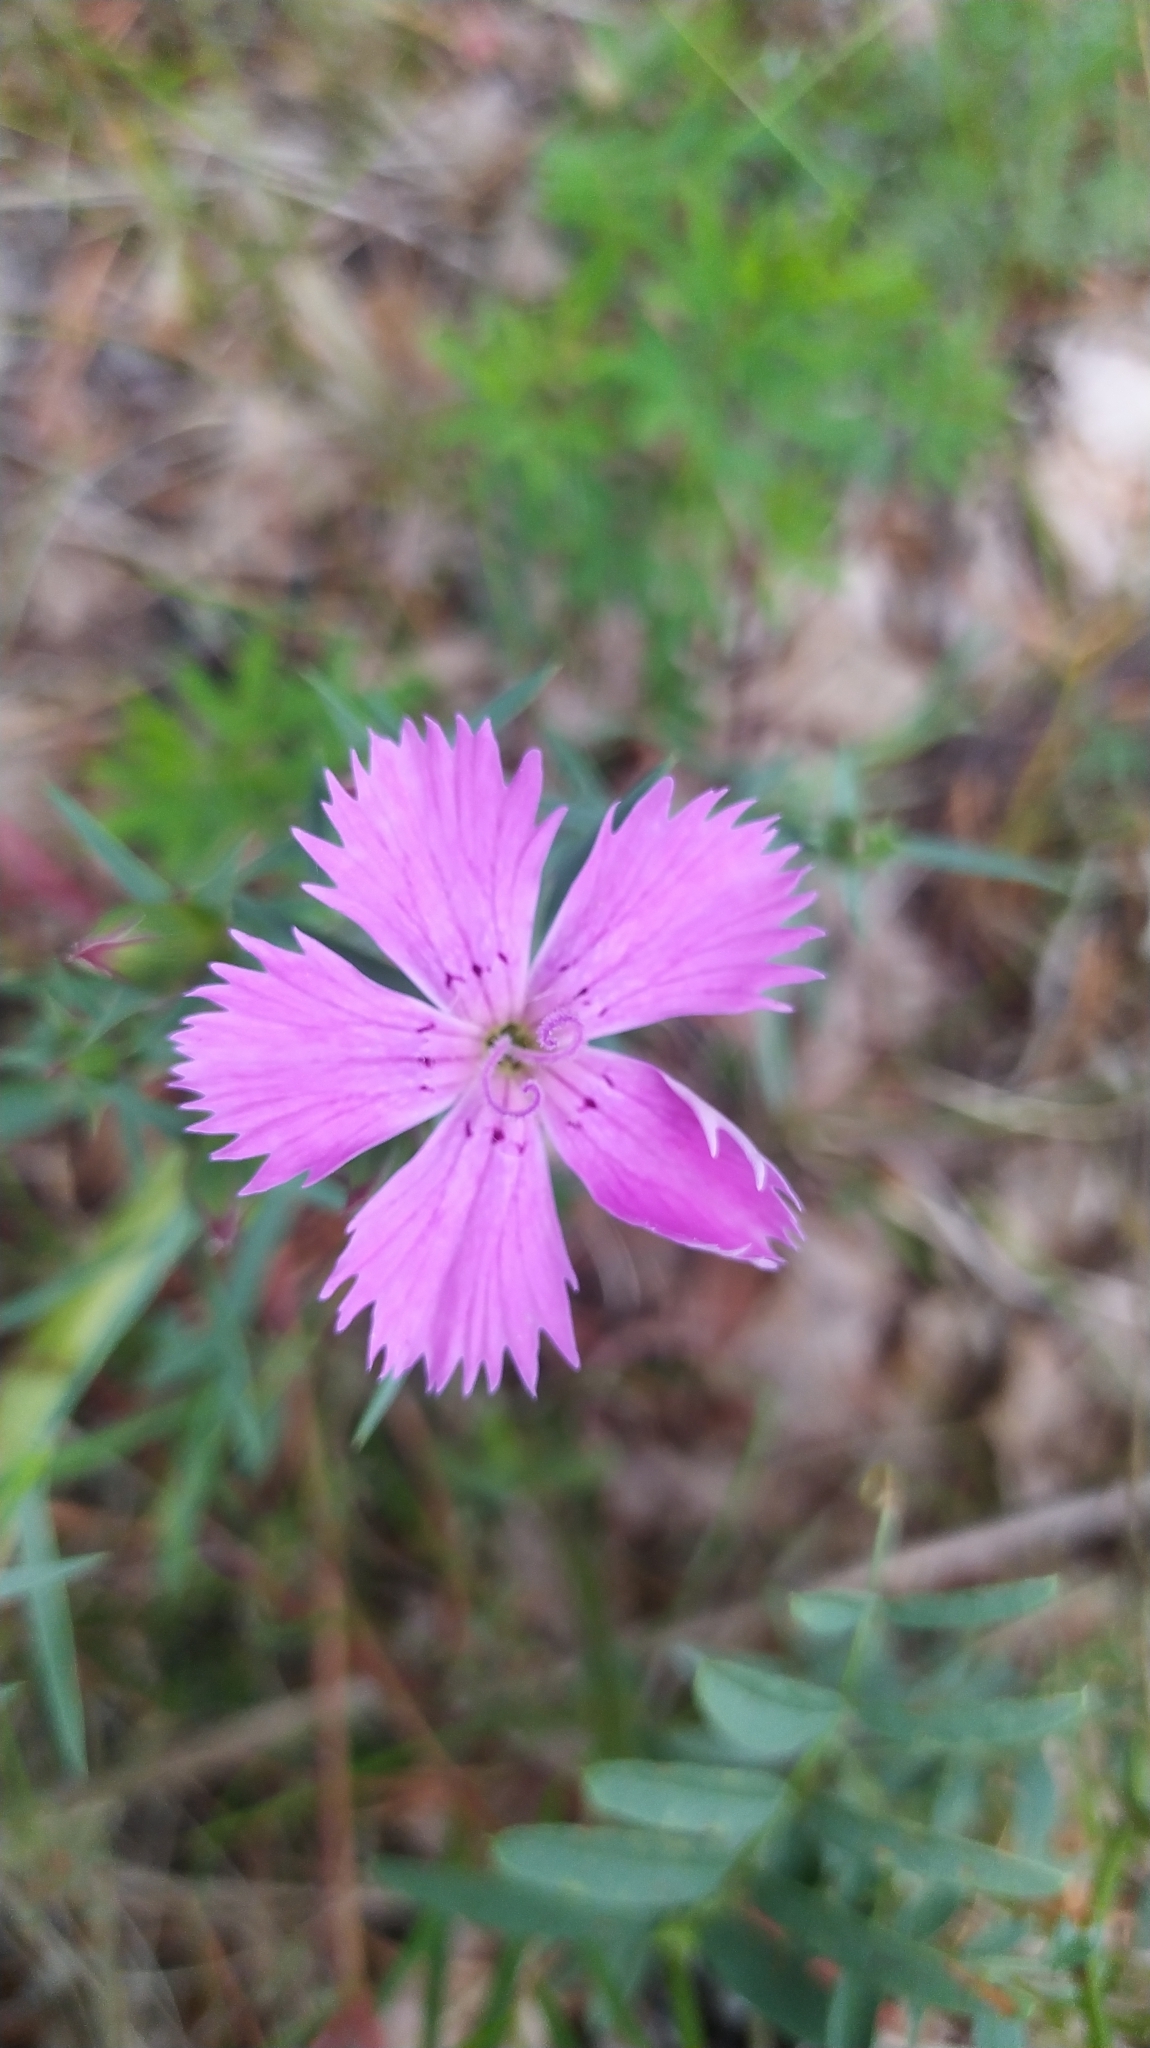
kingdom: Plantae
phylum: Tracheophyta
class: Magnoliopsida
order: Caryophyllales
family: Caryophyllaceae
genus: Dianthus
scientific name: Dianthus chinensis
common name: Rainbow pink
